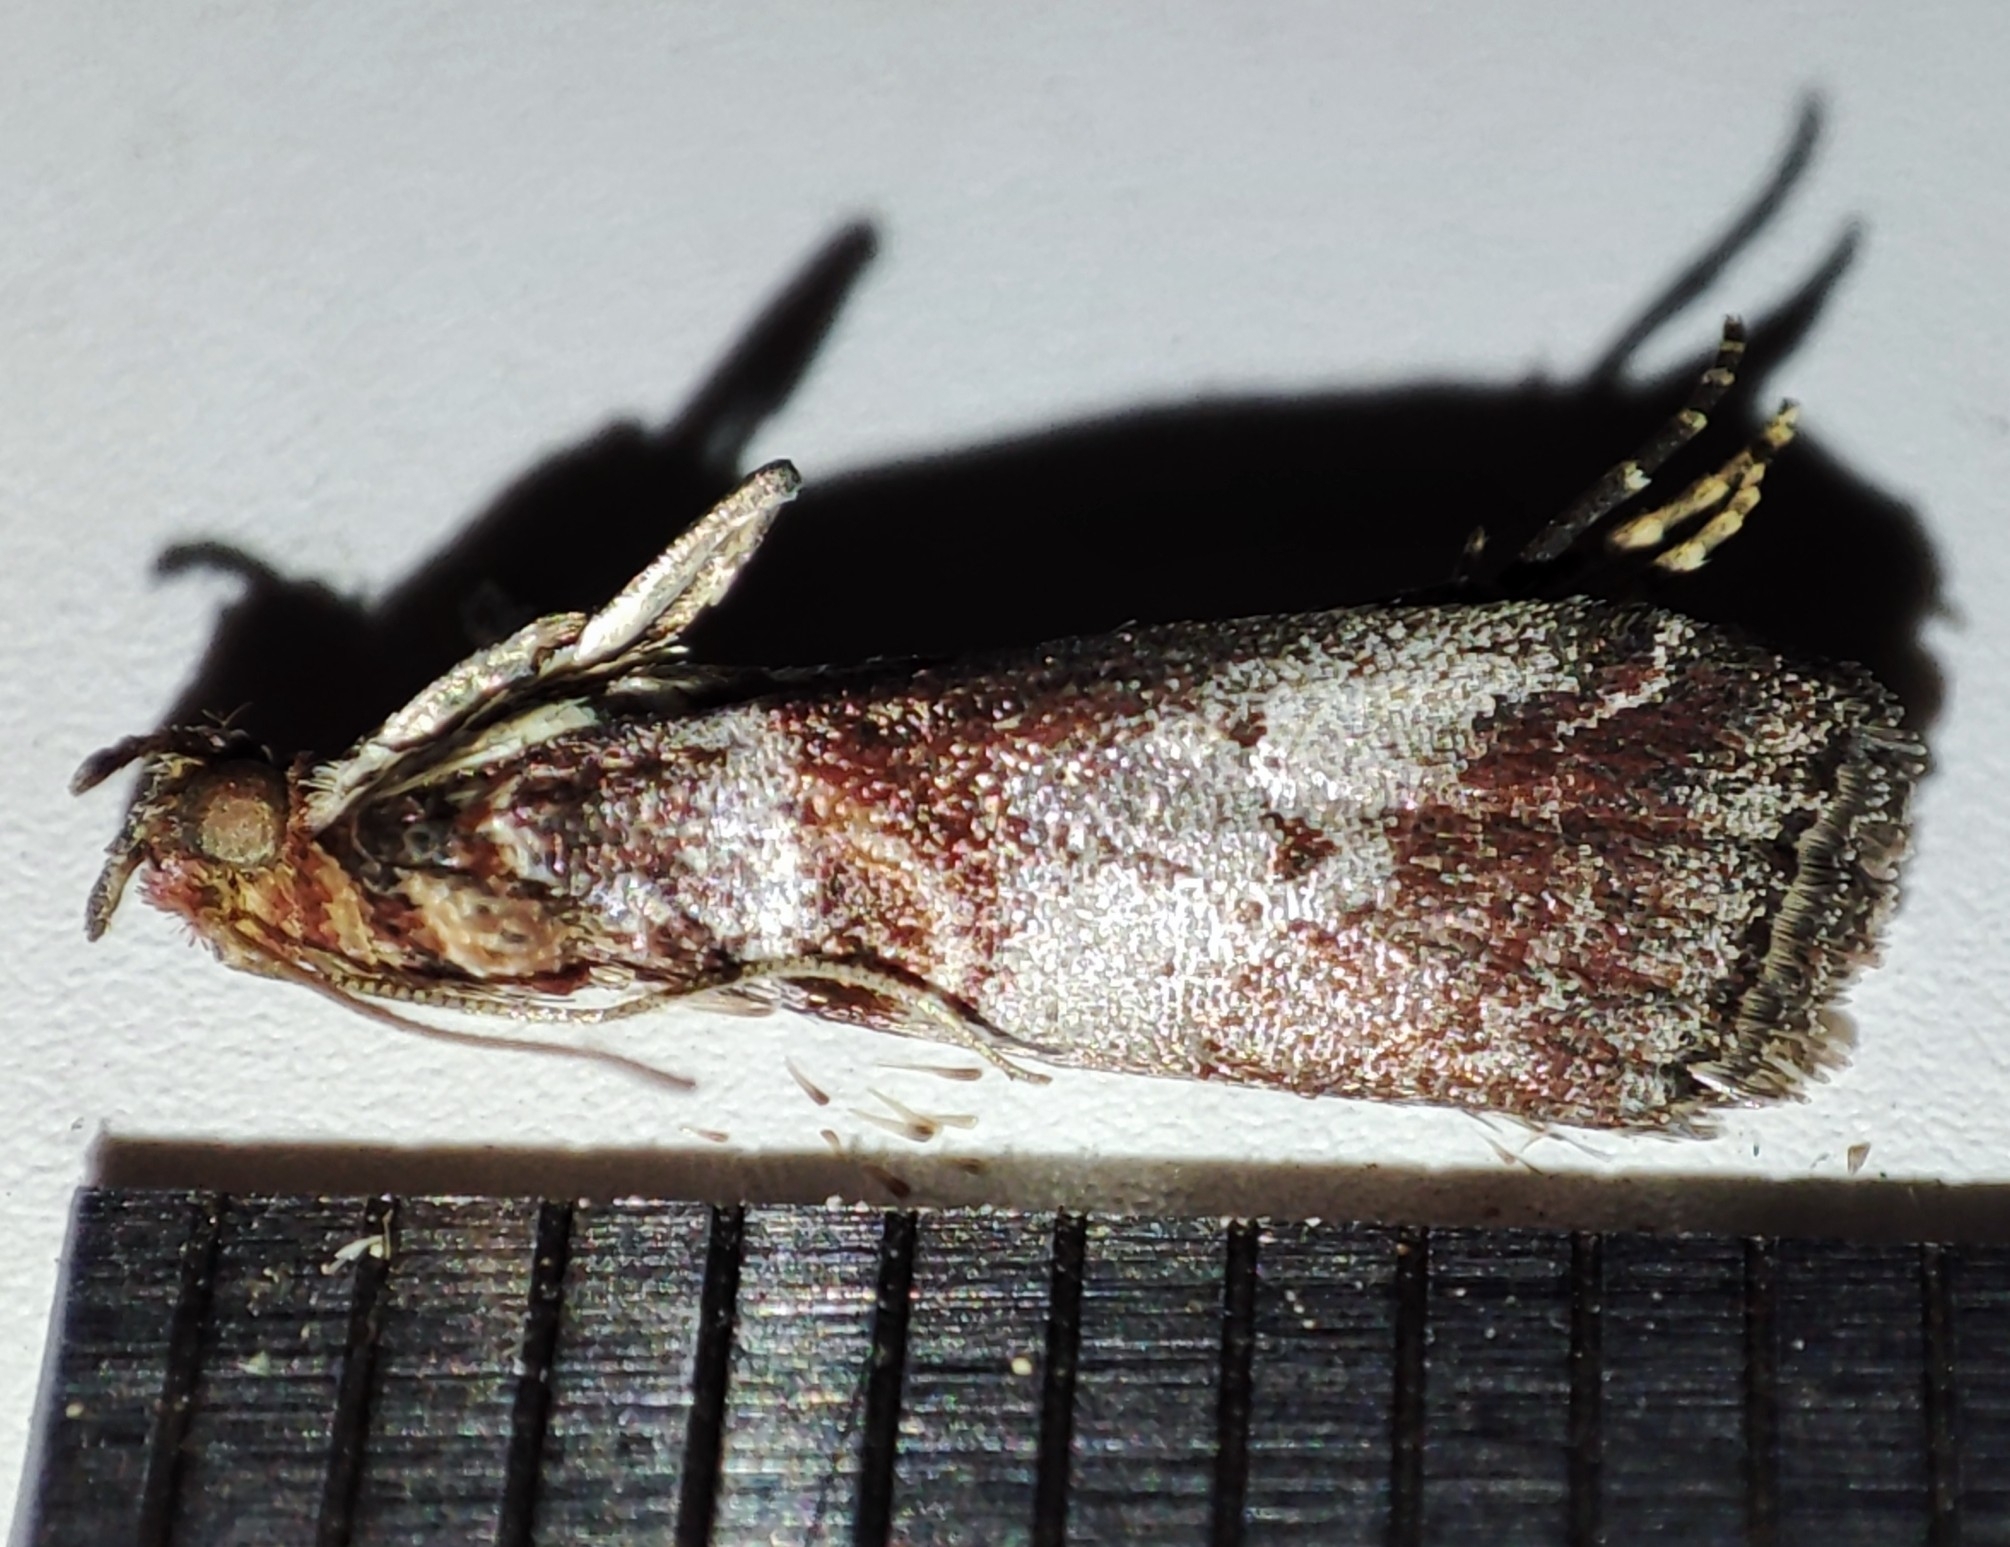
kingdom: Animalia
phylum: Arthropoda
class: Insecta
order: Lepidoptera
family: Pyralidae
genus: Acrobasis
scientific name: Acrobasis advenella
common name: Grey knot-horn
